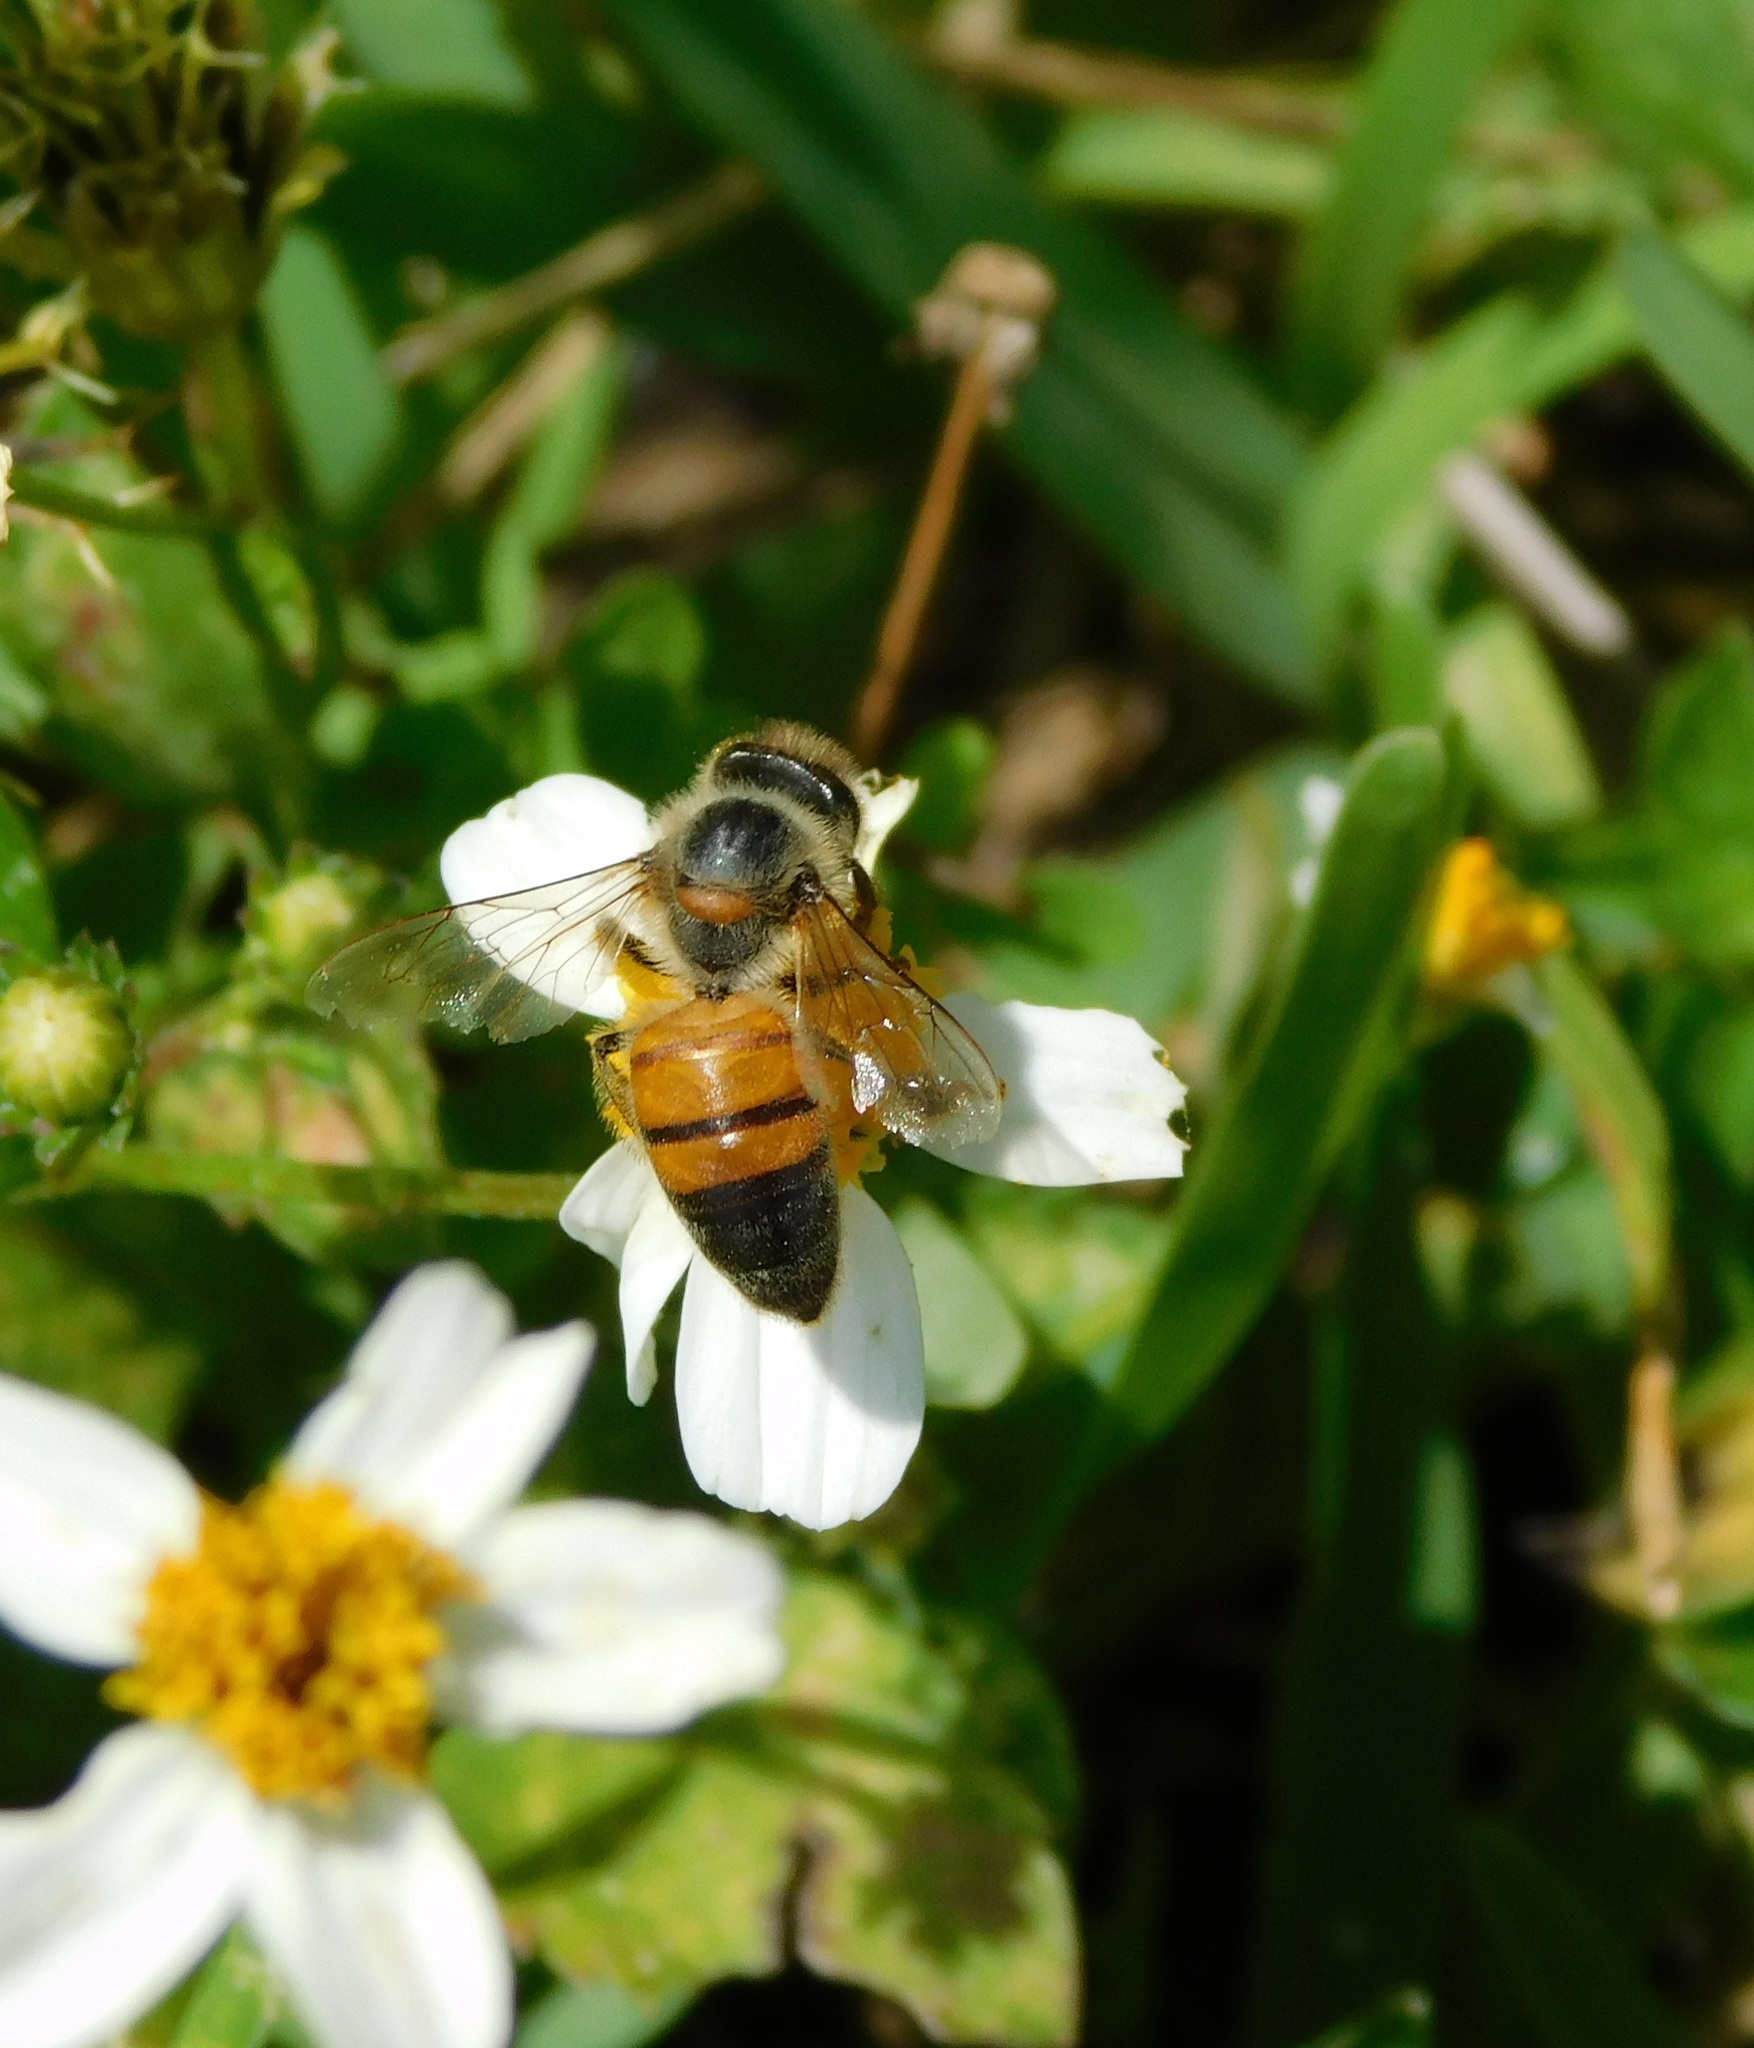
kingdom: Animalia
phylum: Arthropoda
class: Insecta
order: Hymenoptera
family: Apidae
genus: Apis
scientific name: Apis mellifera
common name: Honey bee
